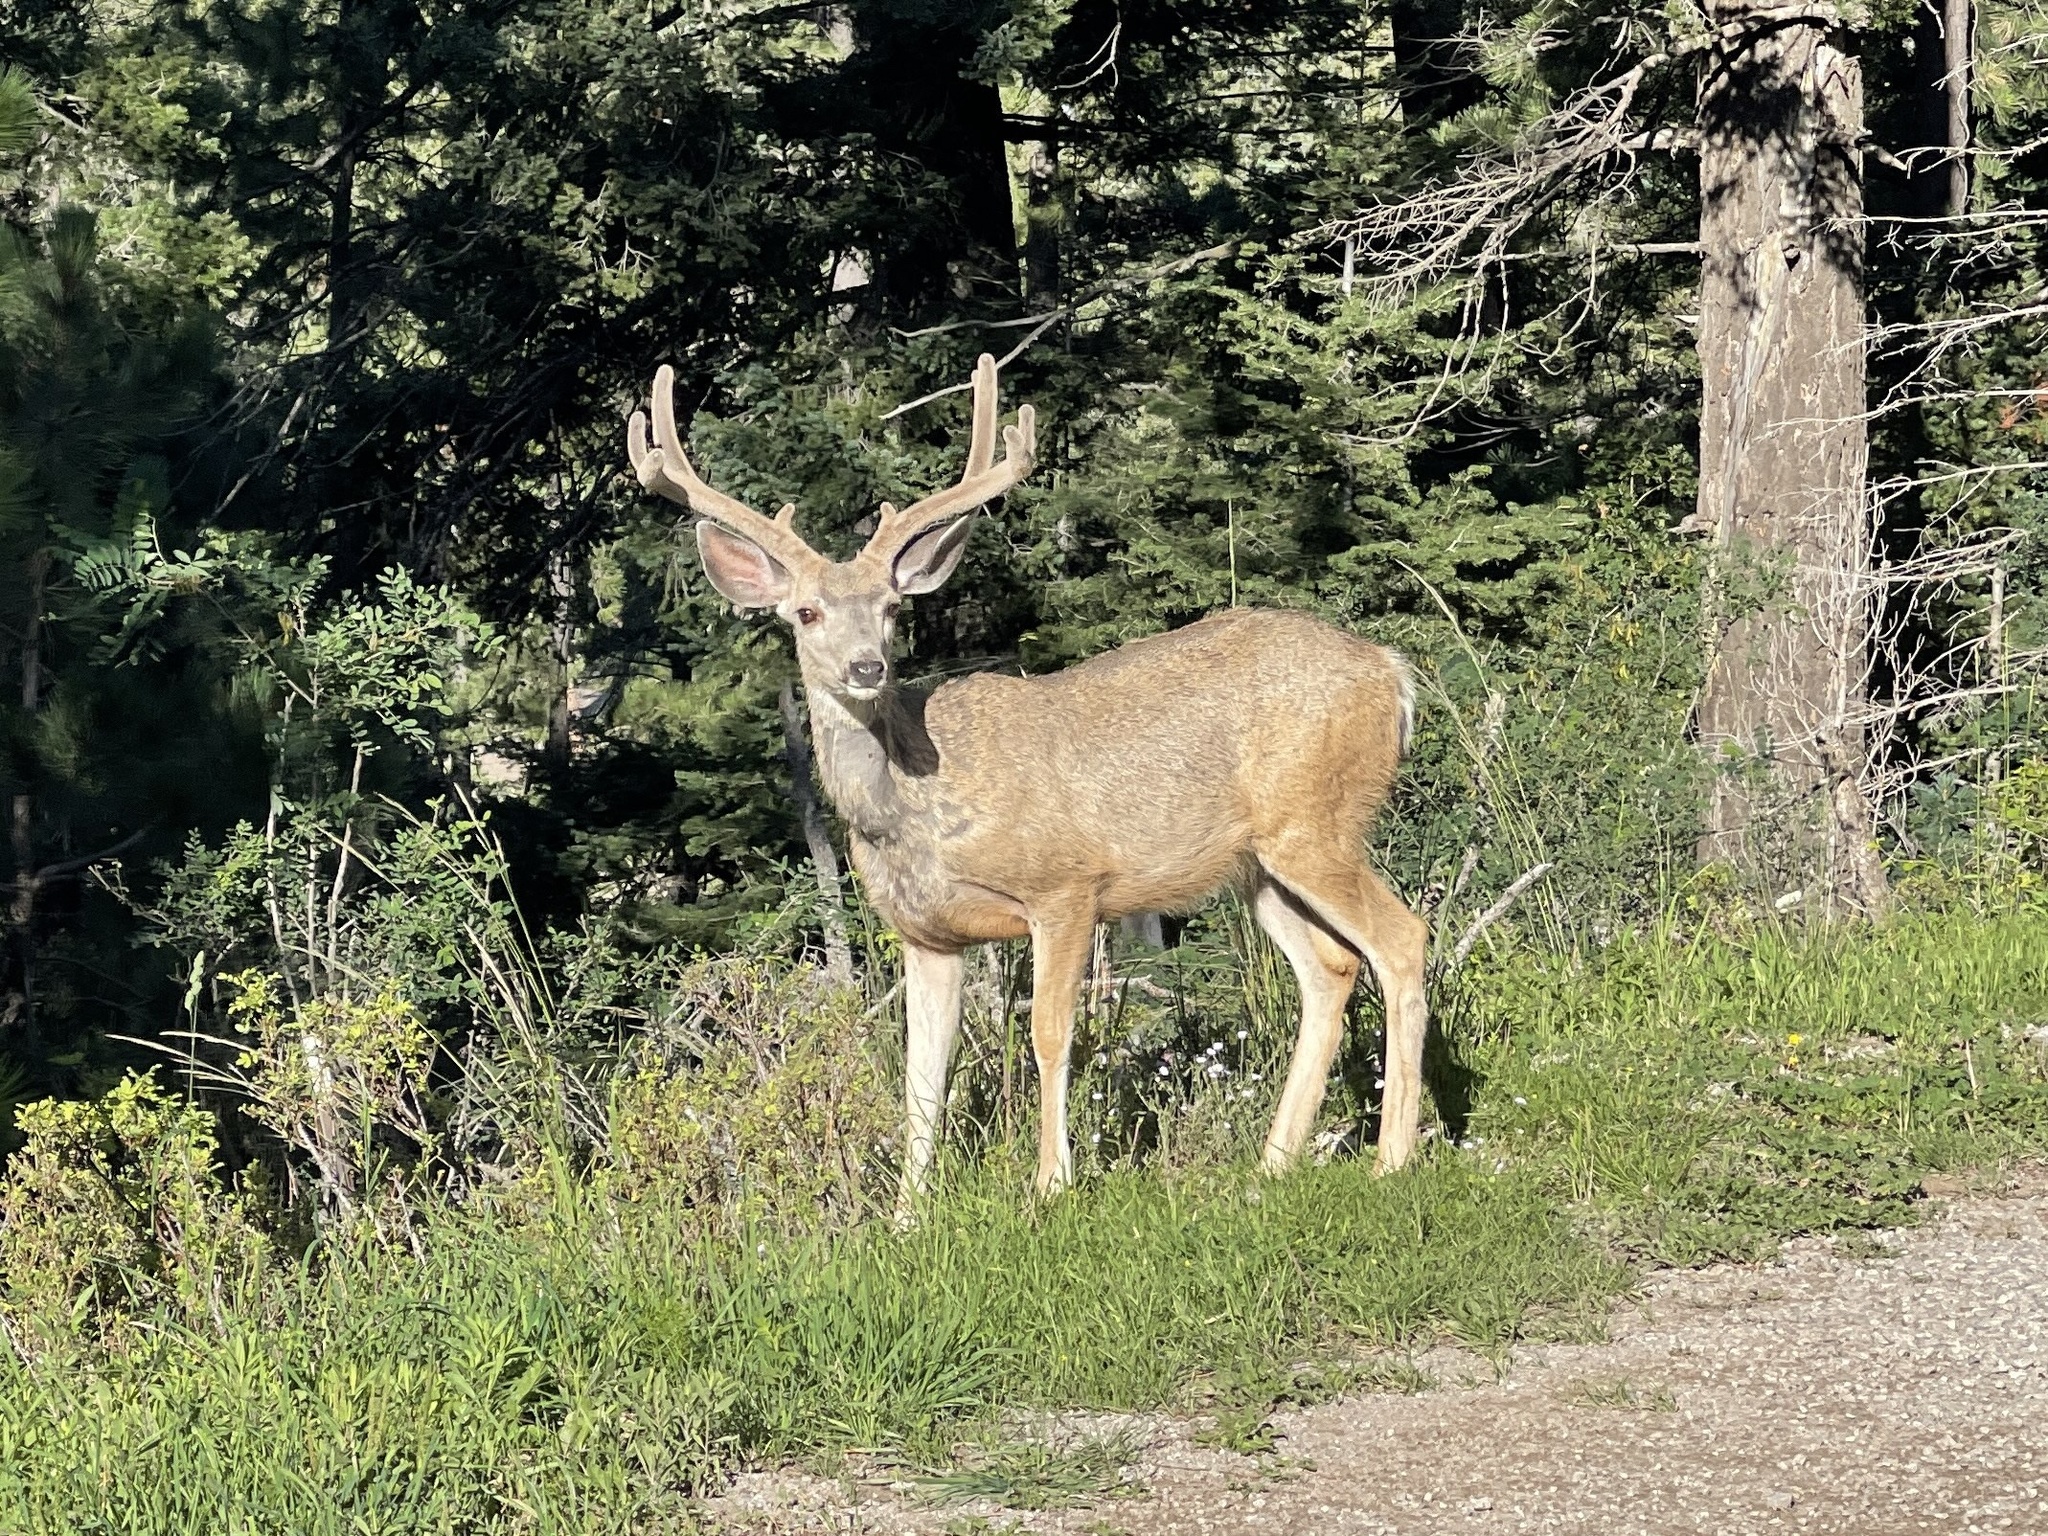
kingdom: Animalia
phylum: Chordata
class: Mammalia
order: Artiodactyla
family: Cervidae
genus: Odocoileus
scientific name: Odocoileus hemionus
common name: Mule deer
